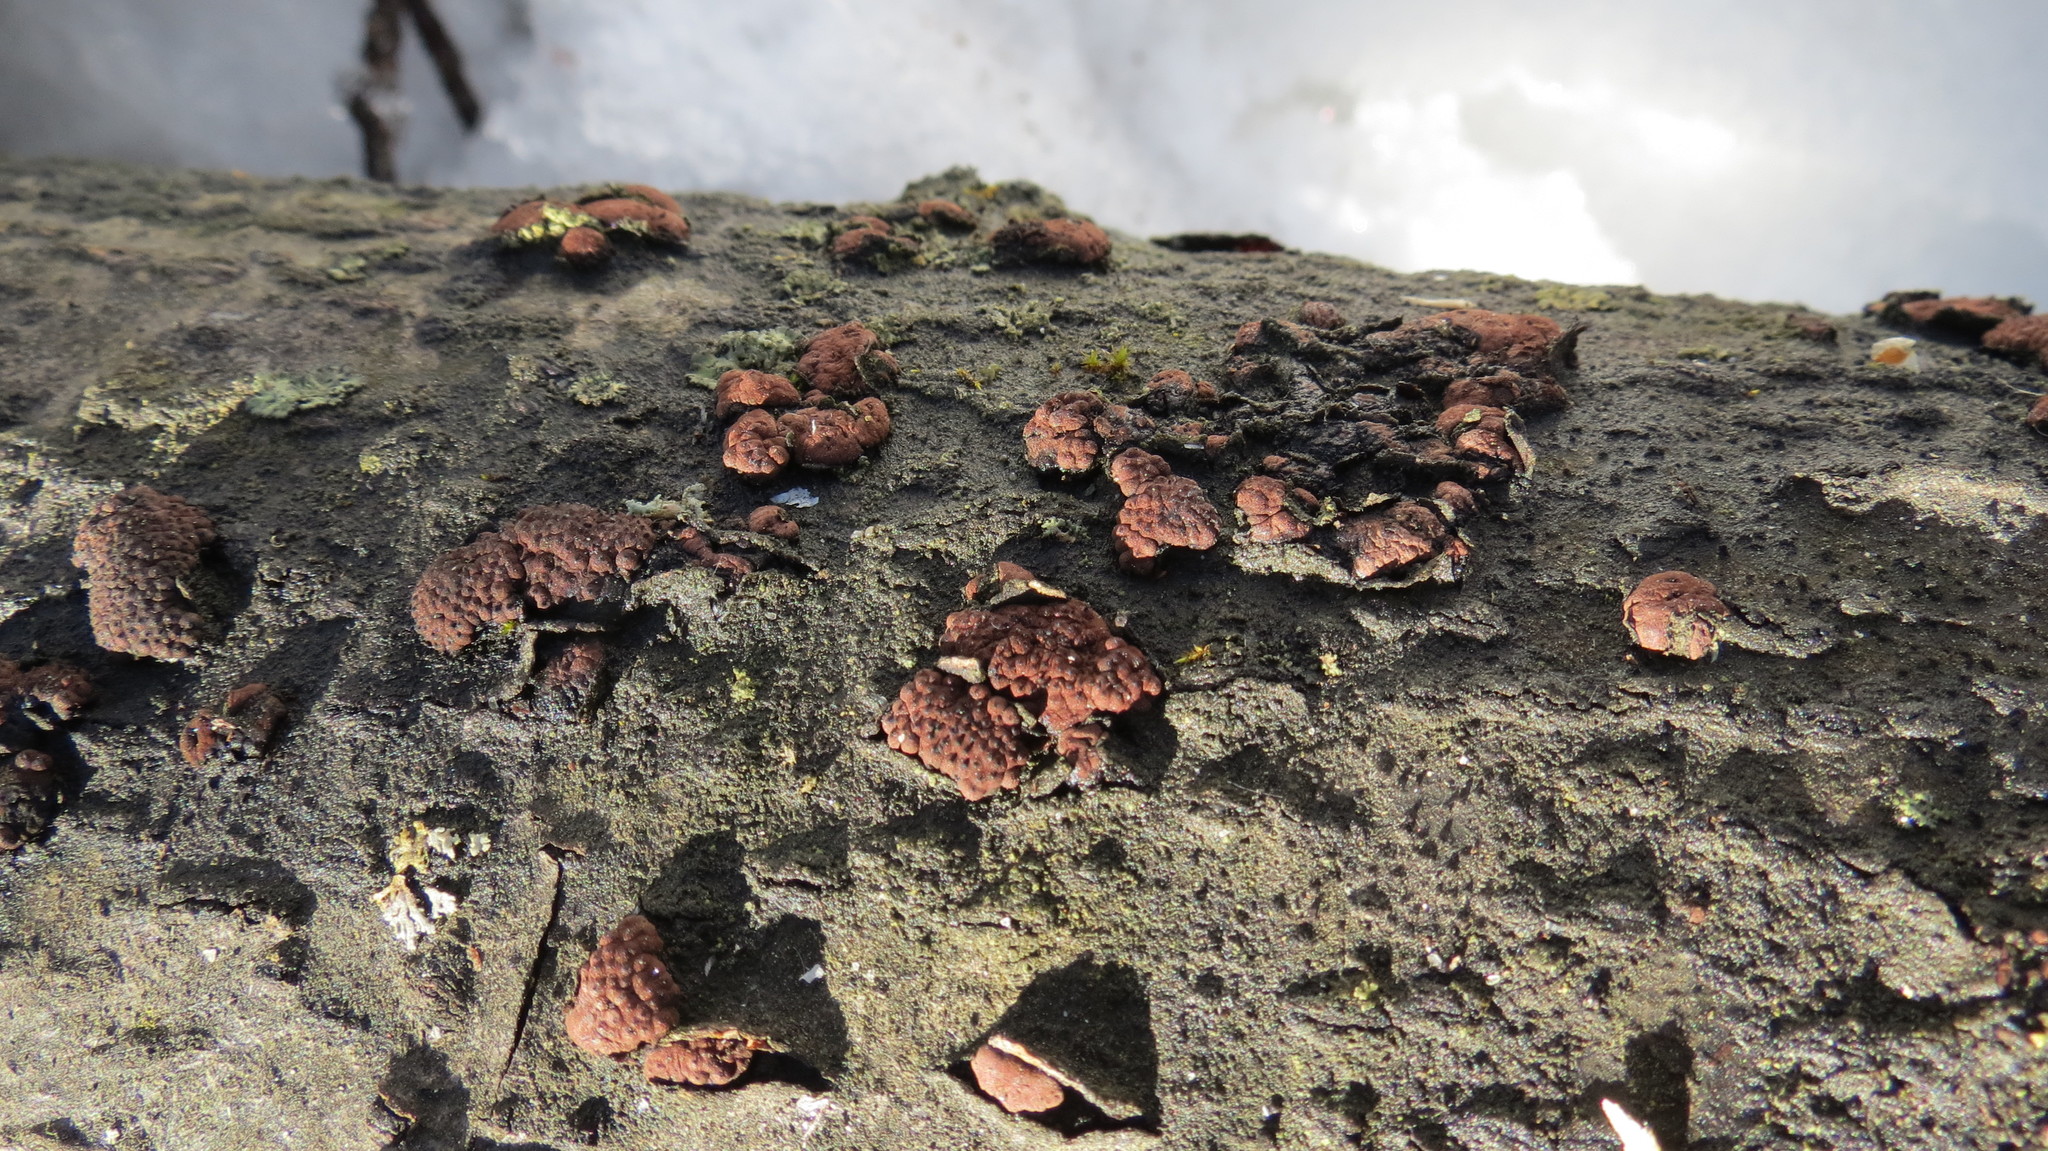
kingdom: Fungi
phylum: Ascomycota
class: Sordariomycetes
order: Xylariales
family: Hypoxylaceae
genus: Jackrogersella
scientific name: Jackrogersella multiformis
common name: Birch woodwart
